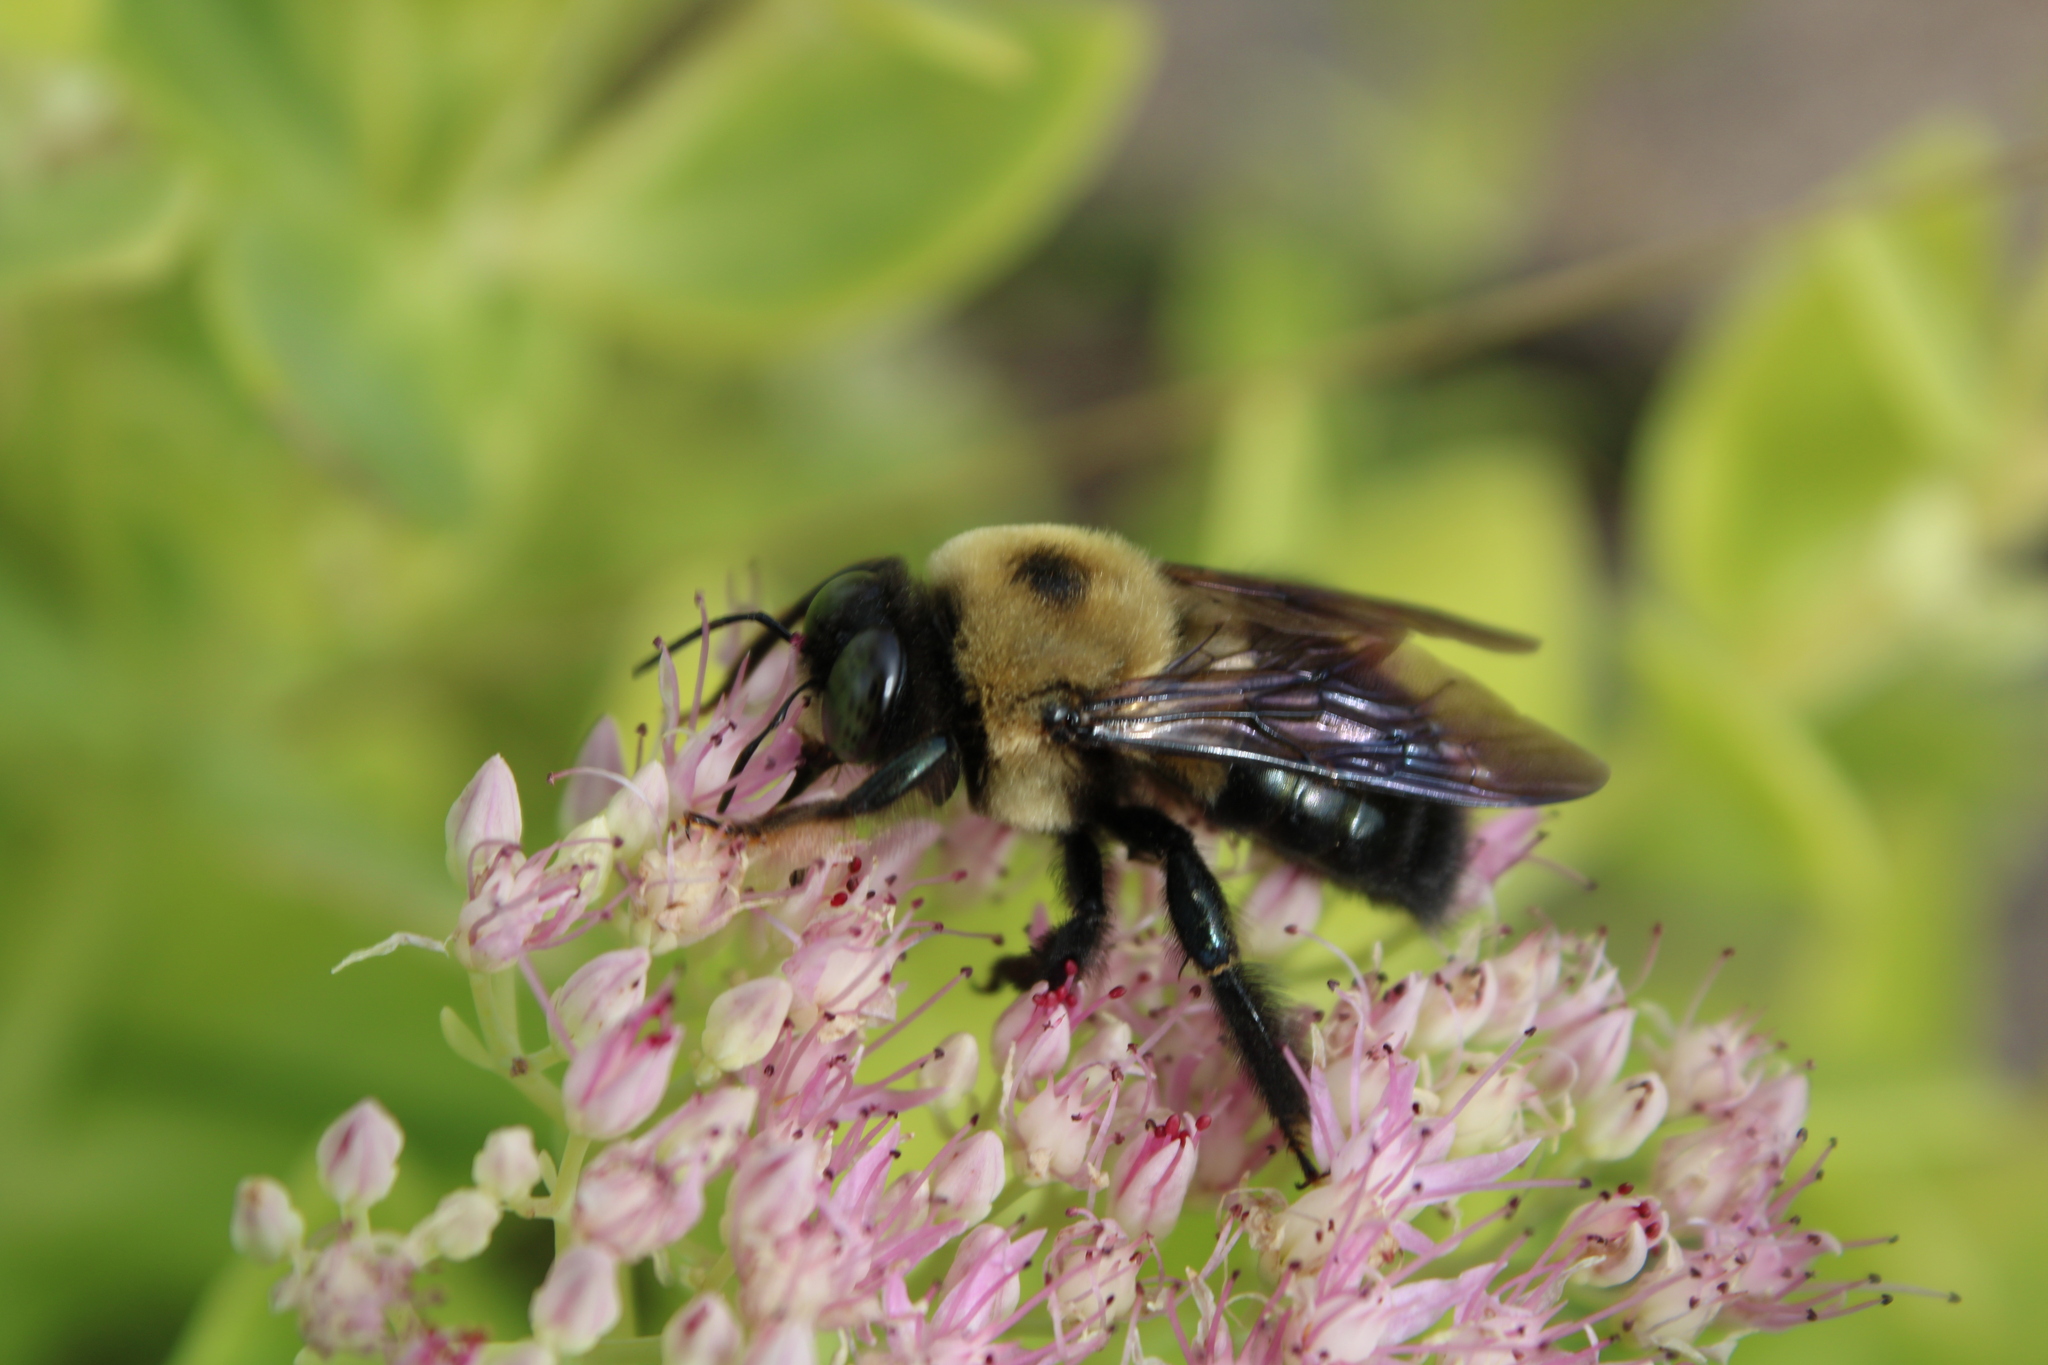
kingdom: Animalia
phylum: Arthropoda
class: Insecta
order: Hymenoptera
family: Apidae
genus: Xylocopa
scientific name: Xylocopa virginica
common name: Carpenter bee
